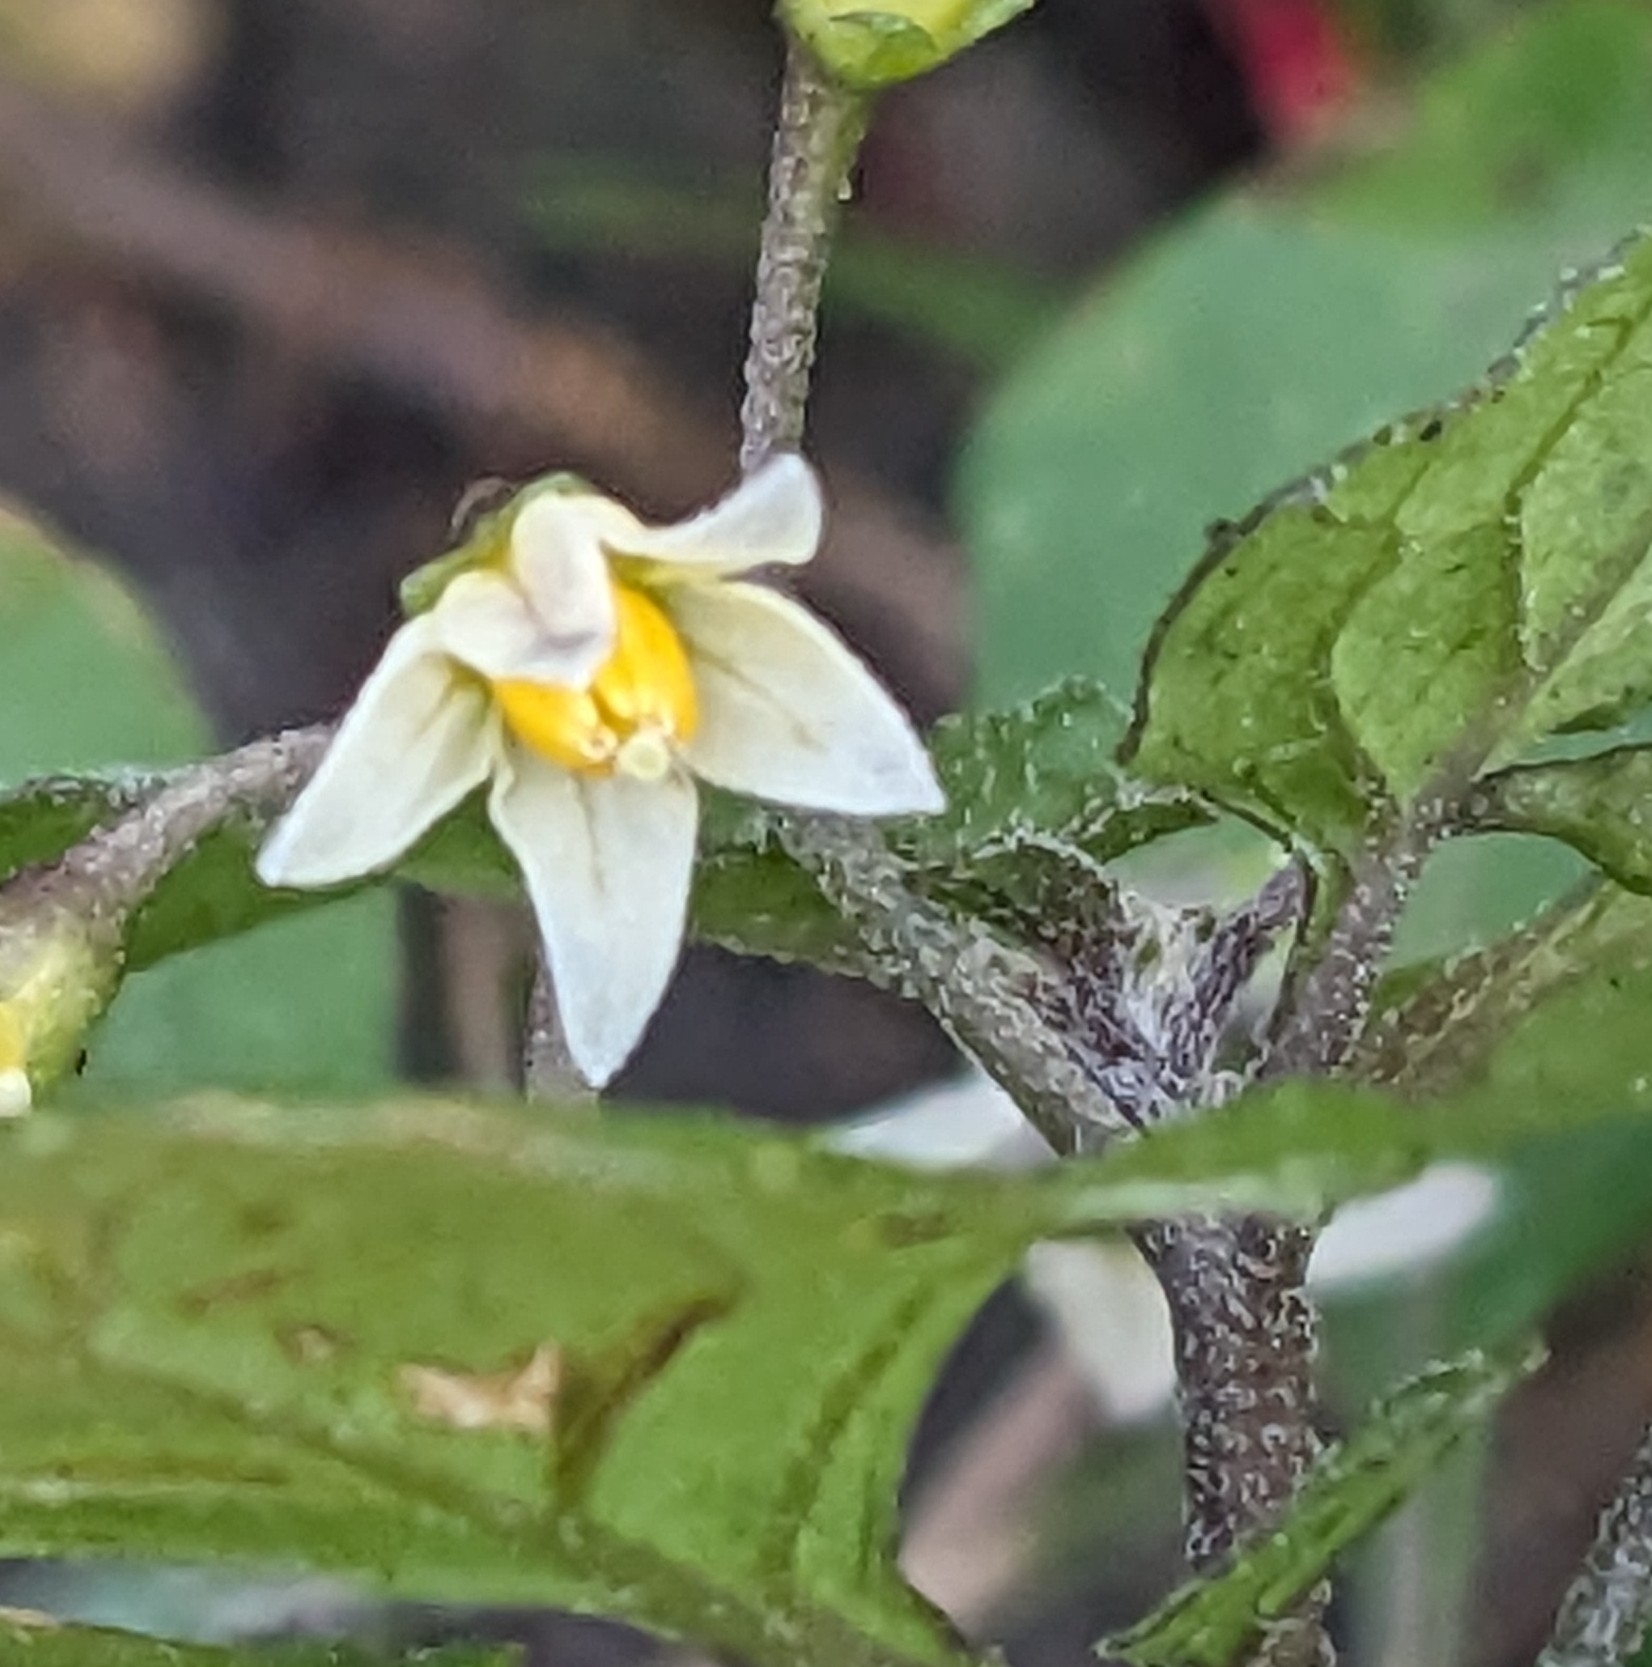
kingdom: Plantae
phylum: Tracheophyta
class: Magnoliopsida
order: Solanales
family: Solanaceae
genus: Solanum
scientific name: Solanum nigrum
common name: Black nightshade
